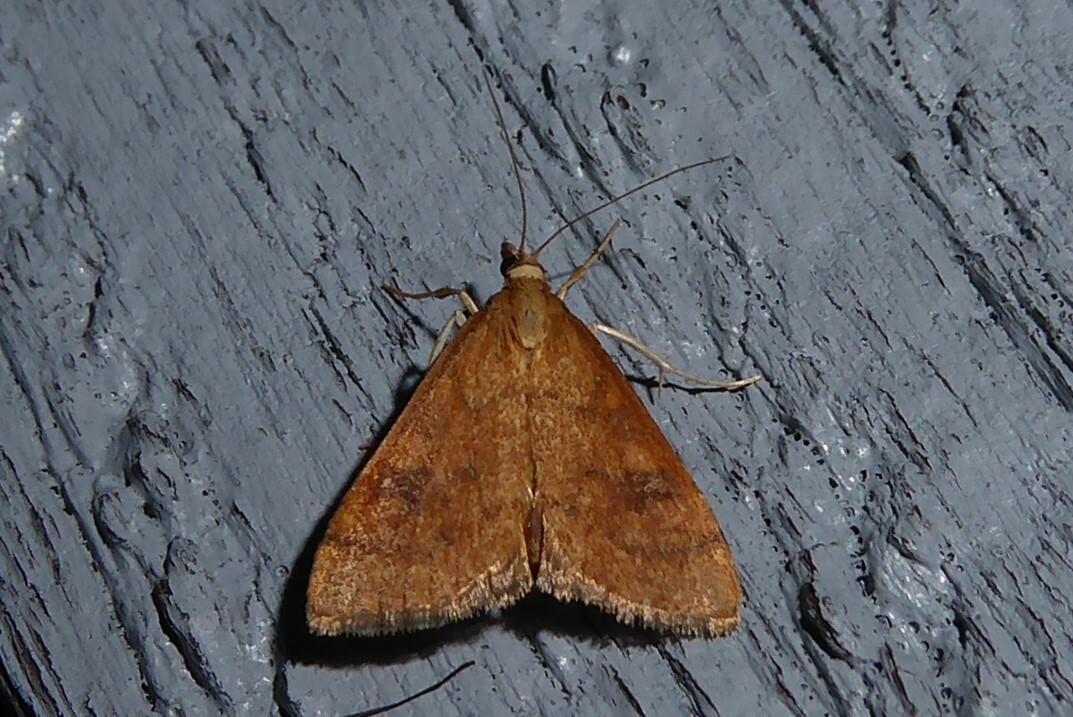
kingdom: Animalia
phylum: Arthropoda
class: Insecta
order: Lepidoptera
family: Crambidae
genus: Udea
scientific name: Udea Mnesictena flavidalis
